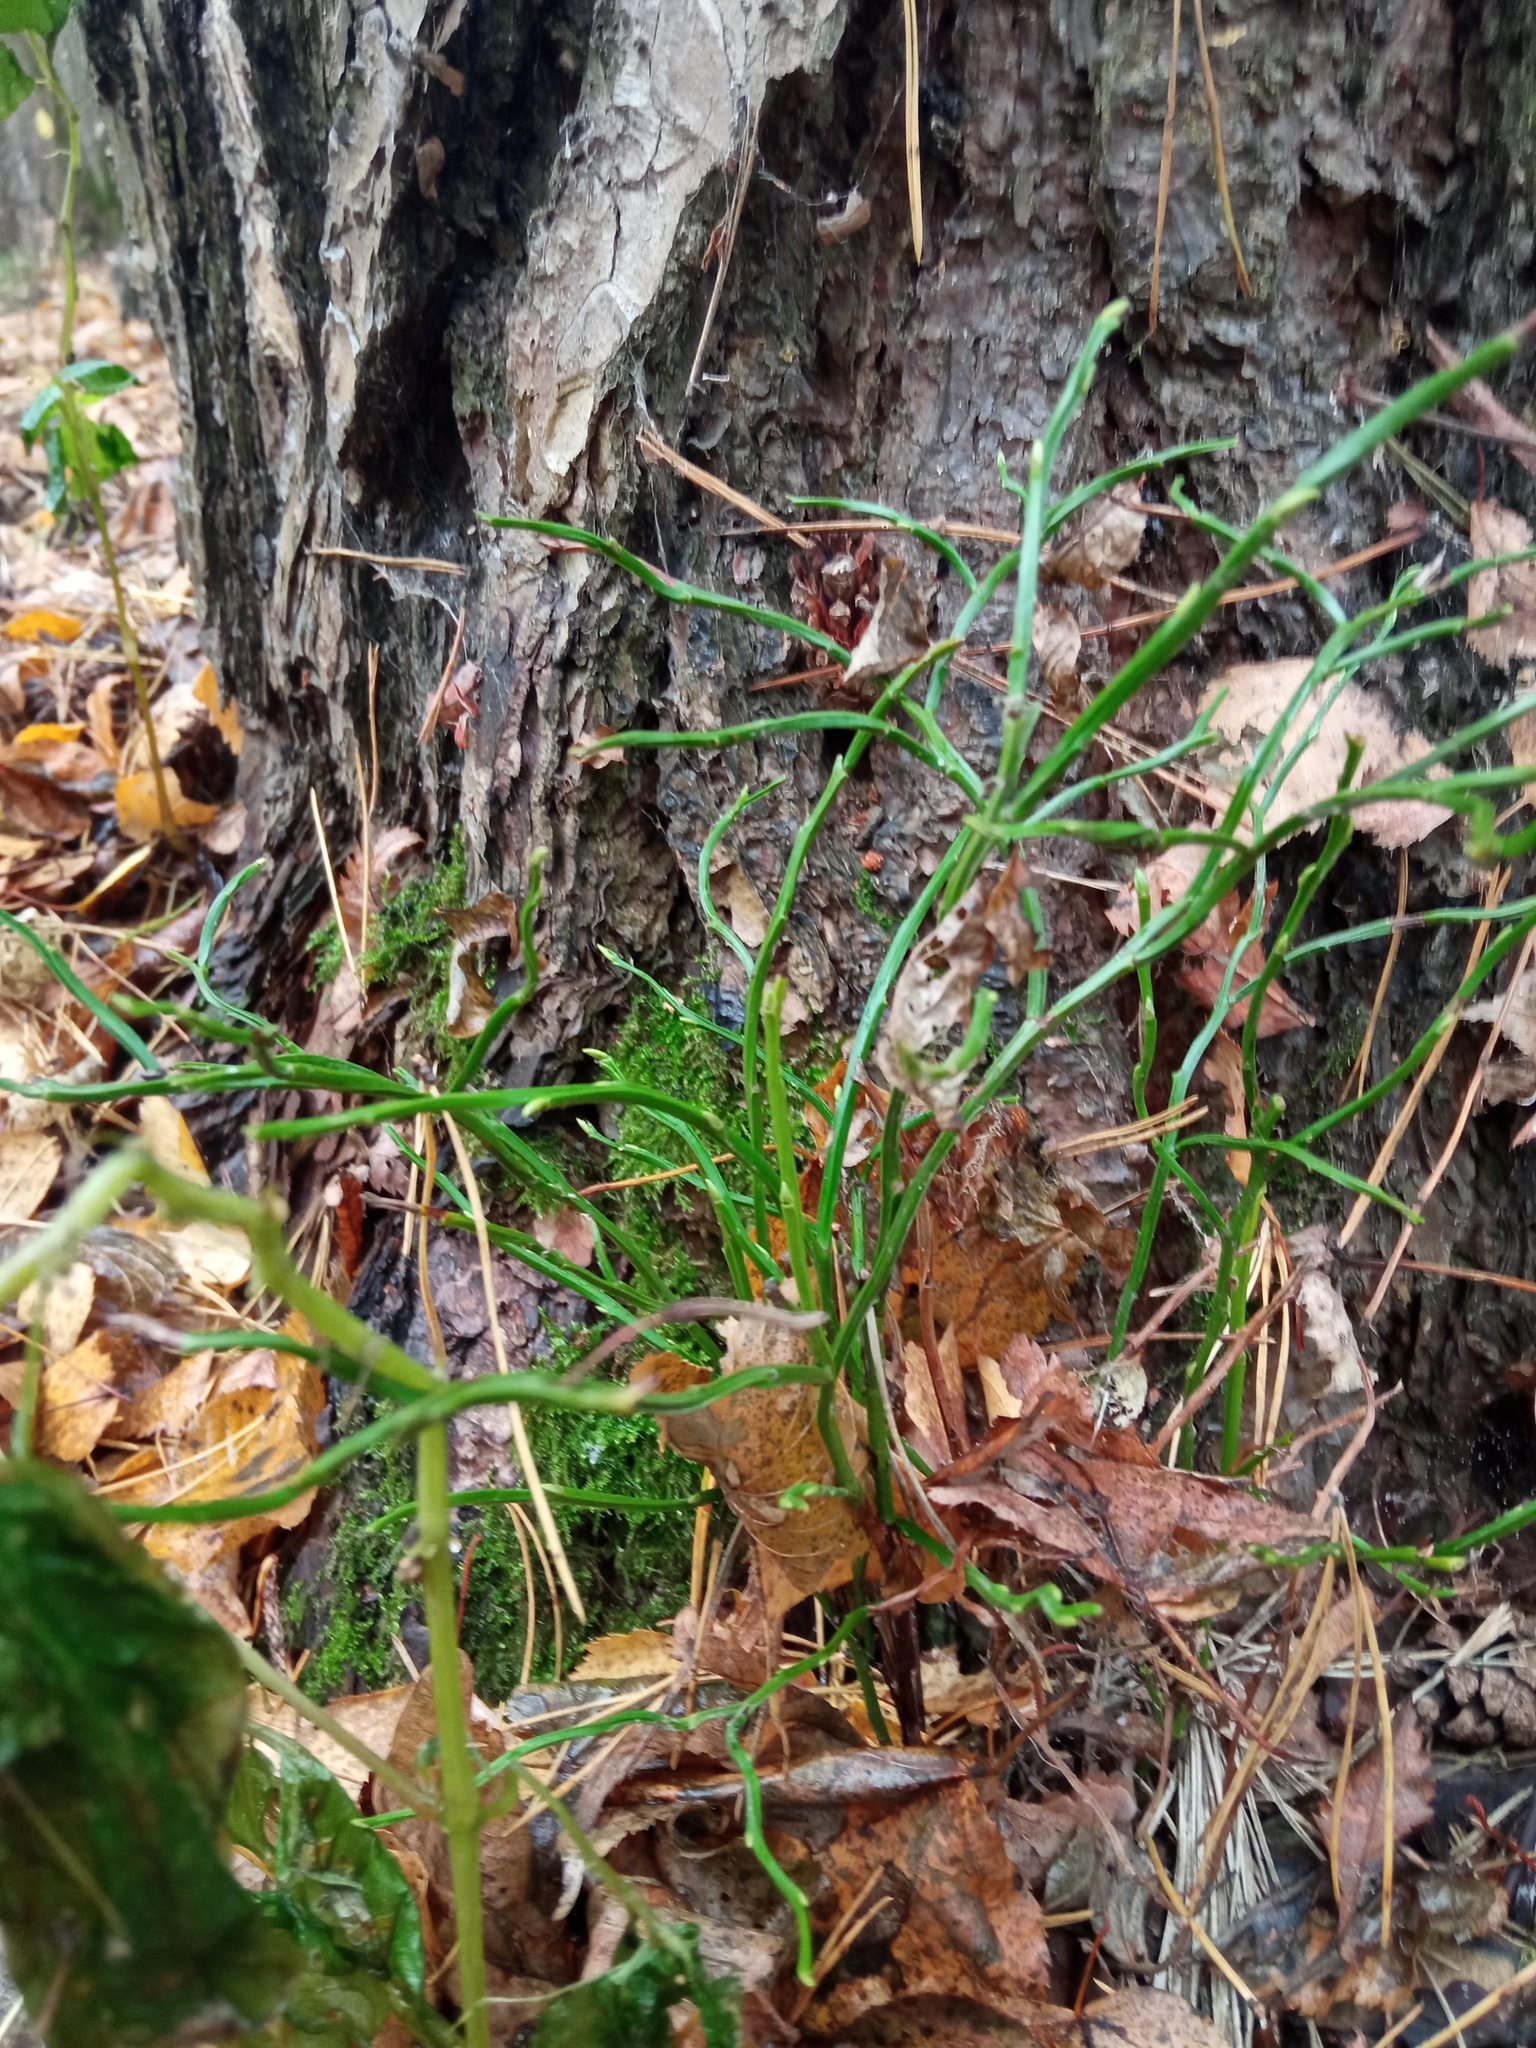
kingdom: Plantae
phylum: Tracheophyta
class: Magnoliopsida
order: Ericales
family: Ericaceae
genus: Vaccinium
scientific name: Vaccinium myrtillus
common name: Bilberry
